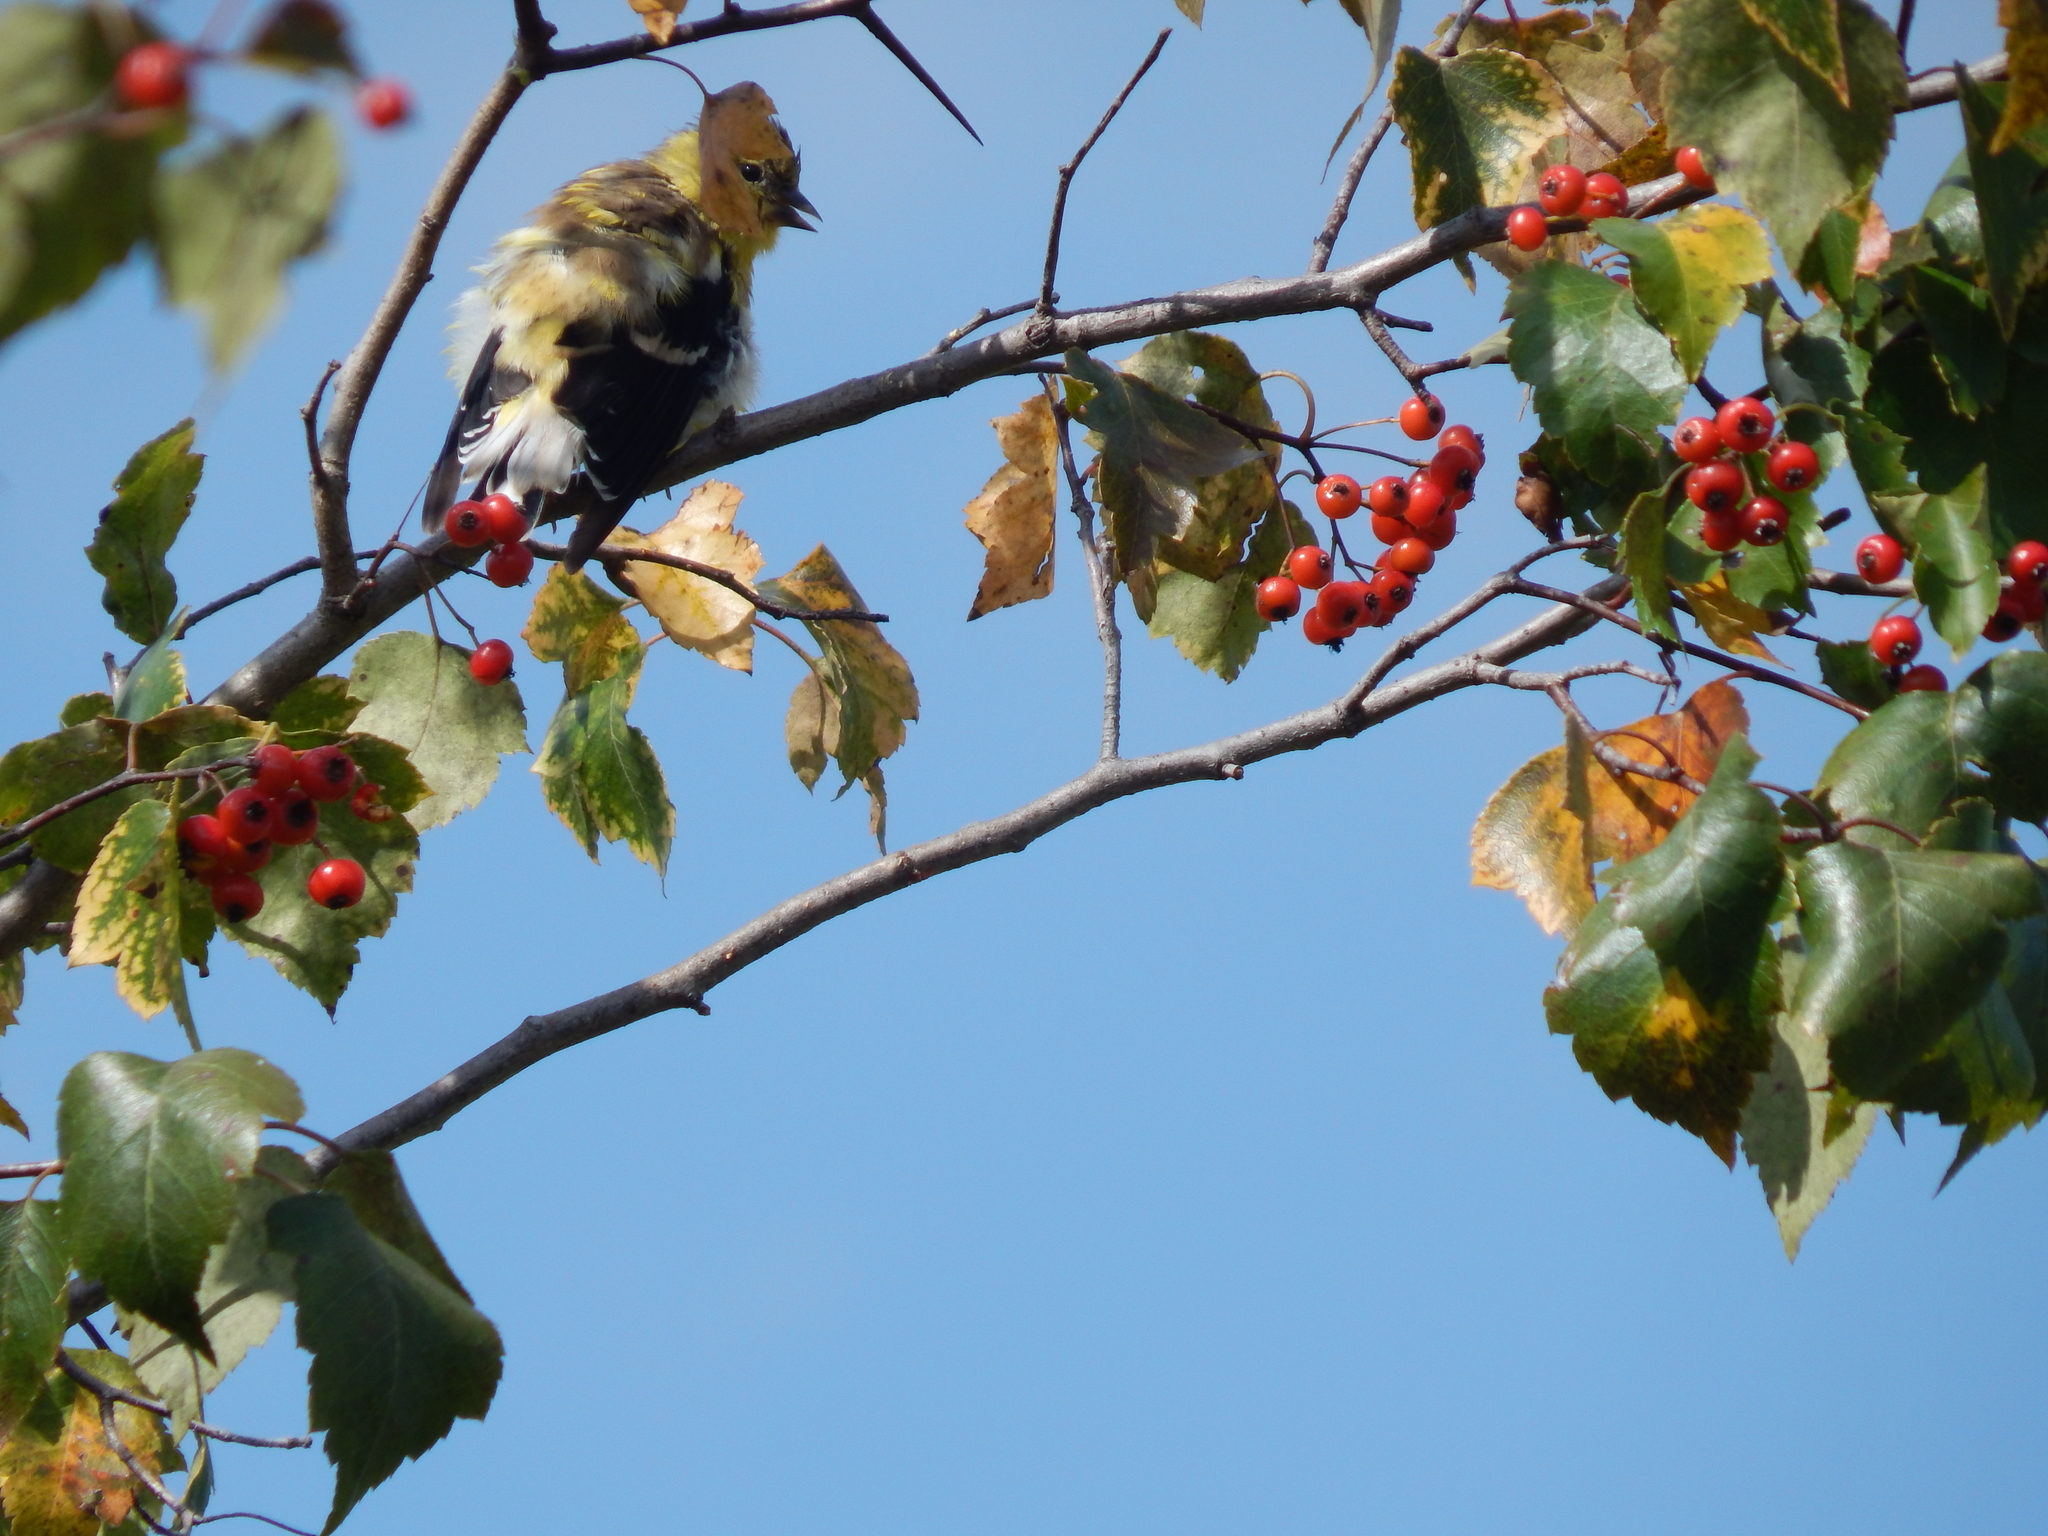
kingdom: Animalia
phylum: Chordata
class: Aves
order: Passeriformes
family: Fringillidae
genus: Spinus
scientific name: Spinus tristis
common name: American goldfinch
